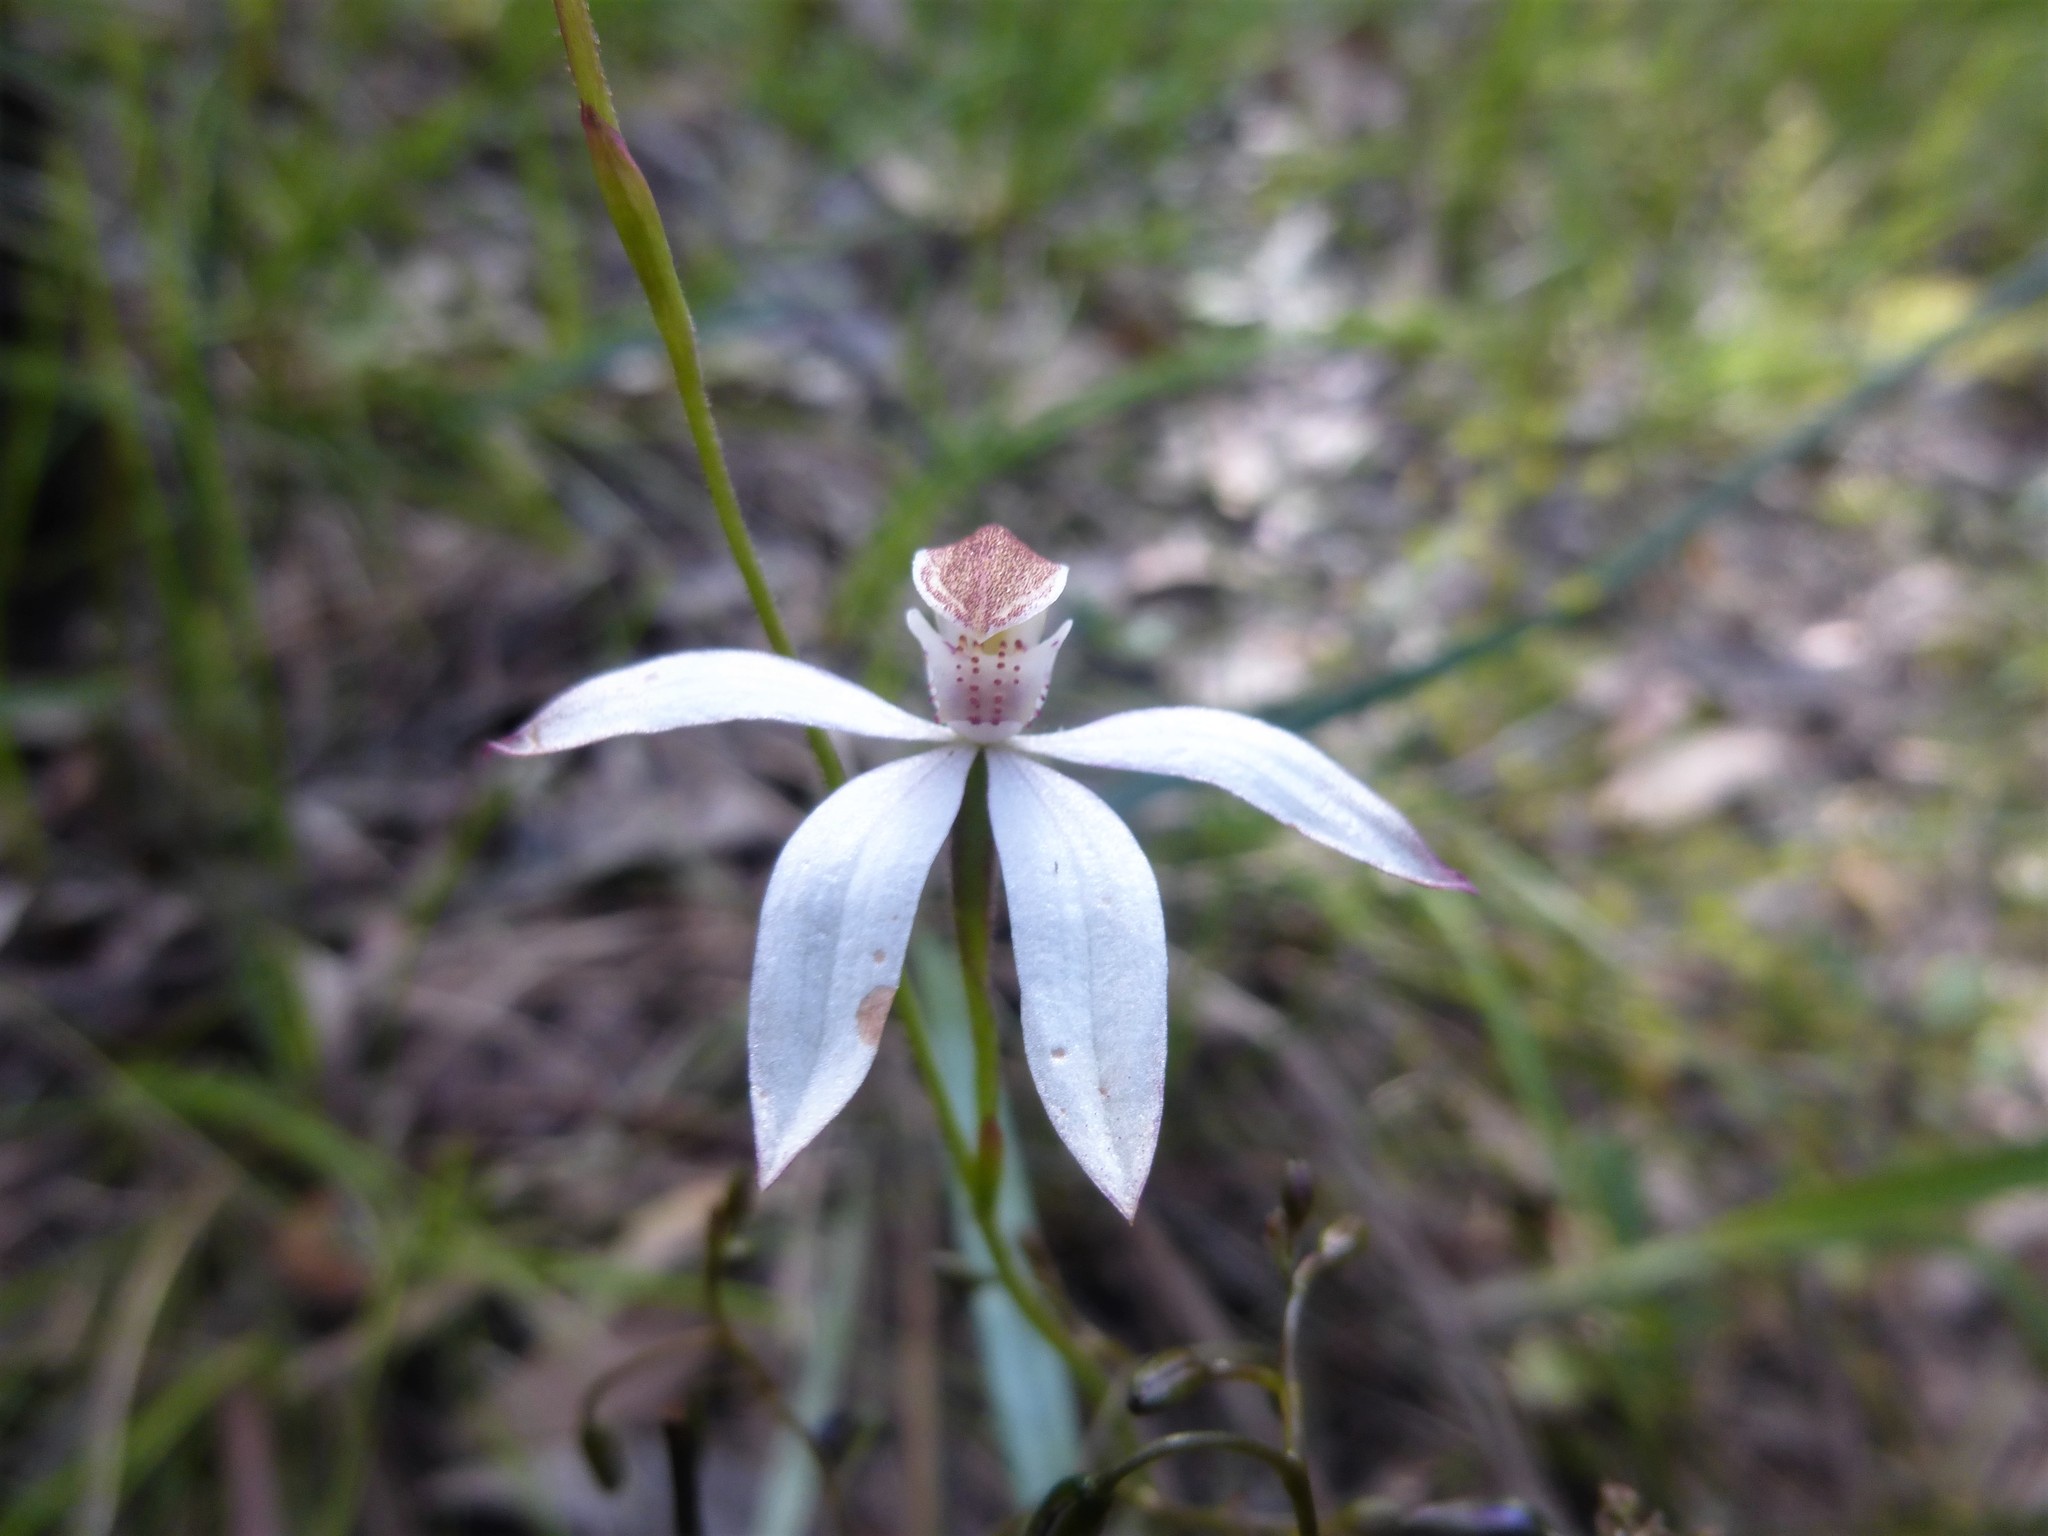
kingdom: Plantae
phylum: Tracheophyta
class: Liliopsida
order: Asparagales
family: Orchidaceae
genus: Caladenia
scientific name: Caladenia moschata
